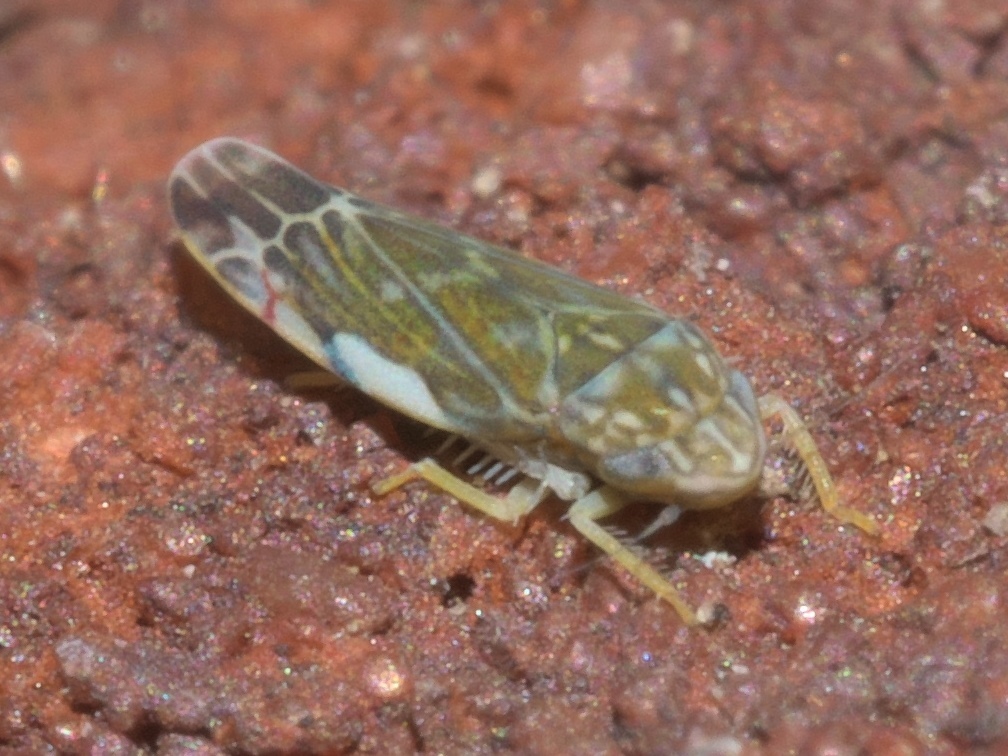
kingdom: Animalia
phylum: Arthropoda
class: Insecta
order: Hemiptera
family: Cicadellidae
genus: Erasmoneura
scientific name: Erasmoneura vulnerata
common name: The wounded leafhopper
